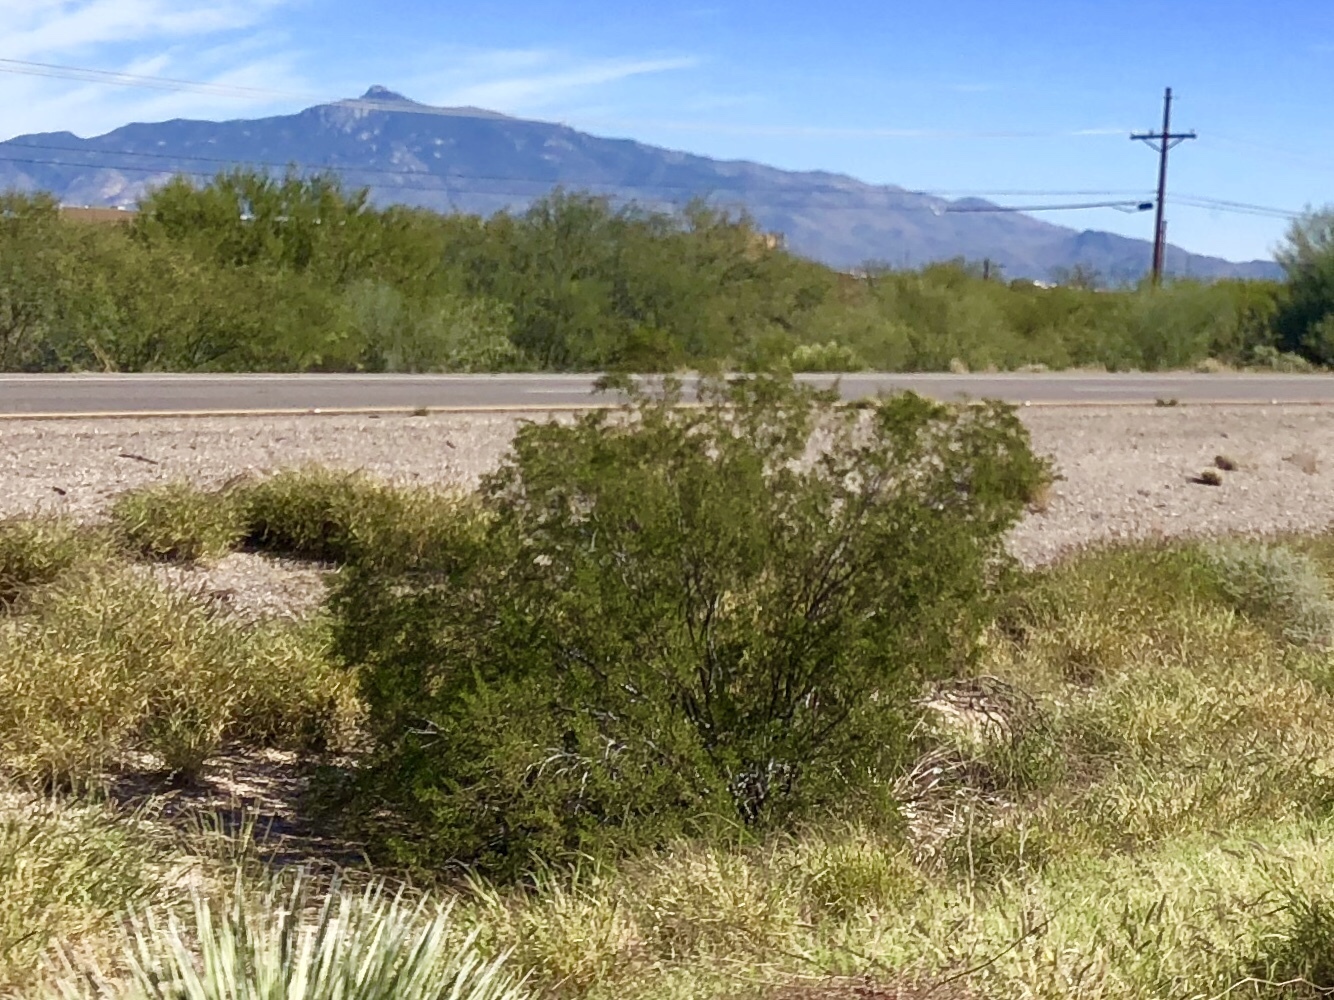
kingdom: Plantae
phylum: Tracheophyta
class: Magnoliopsida
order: Zygophyllales
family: Zygophyllaceae
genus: Larrea
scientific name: Larrea tridentata
